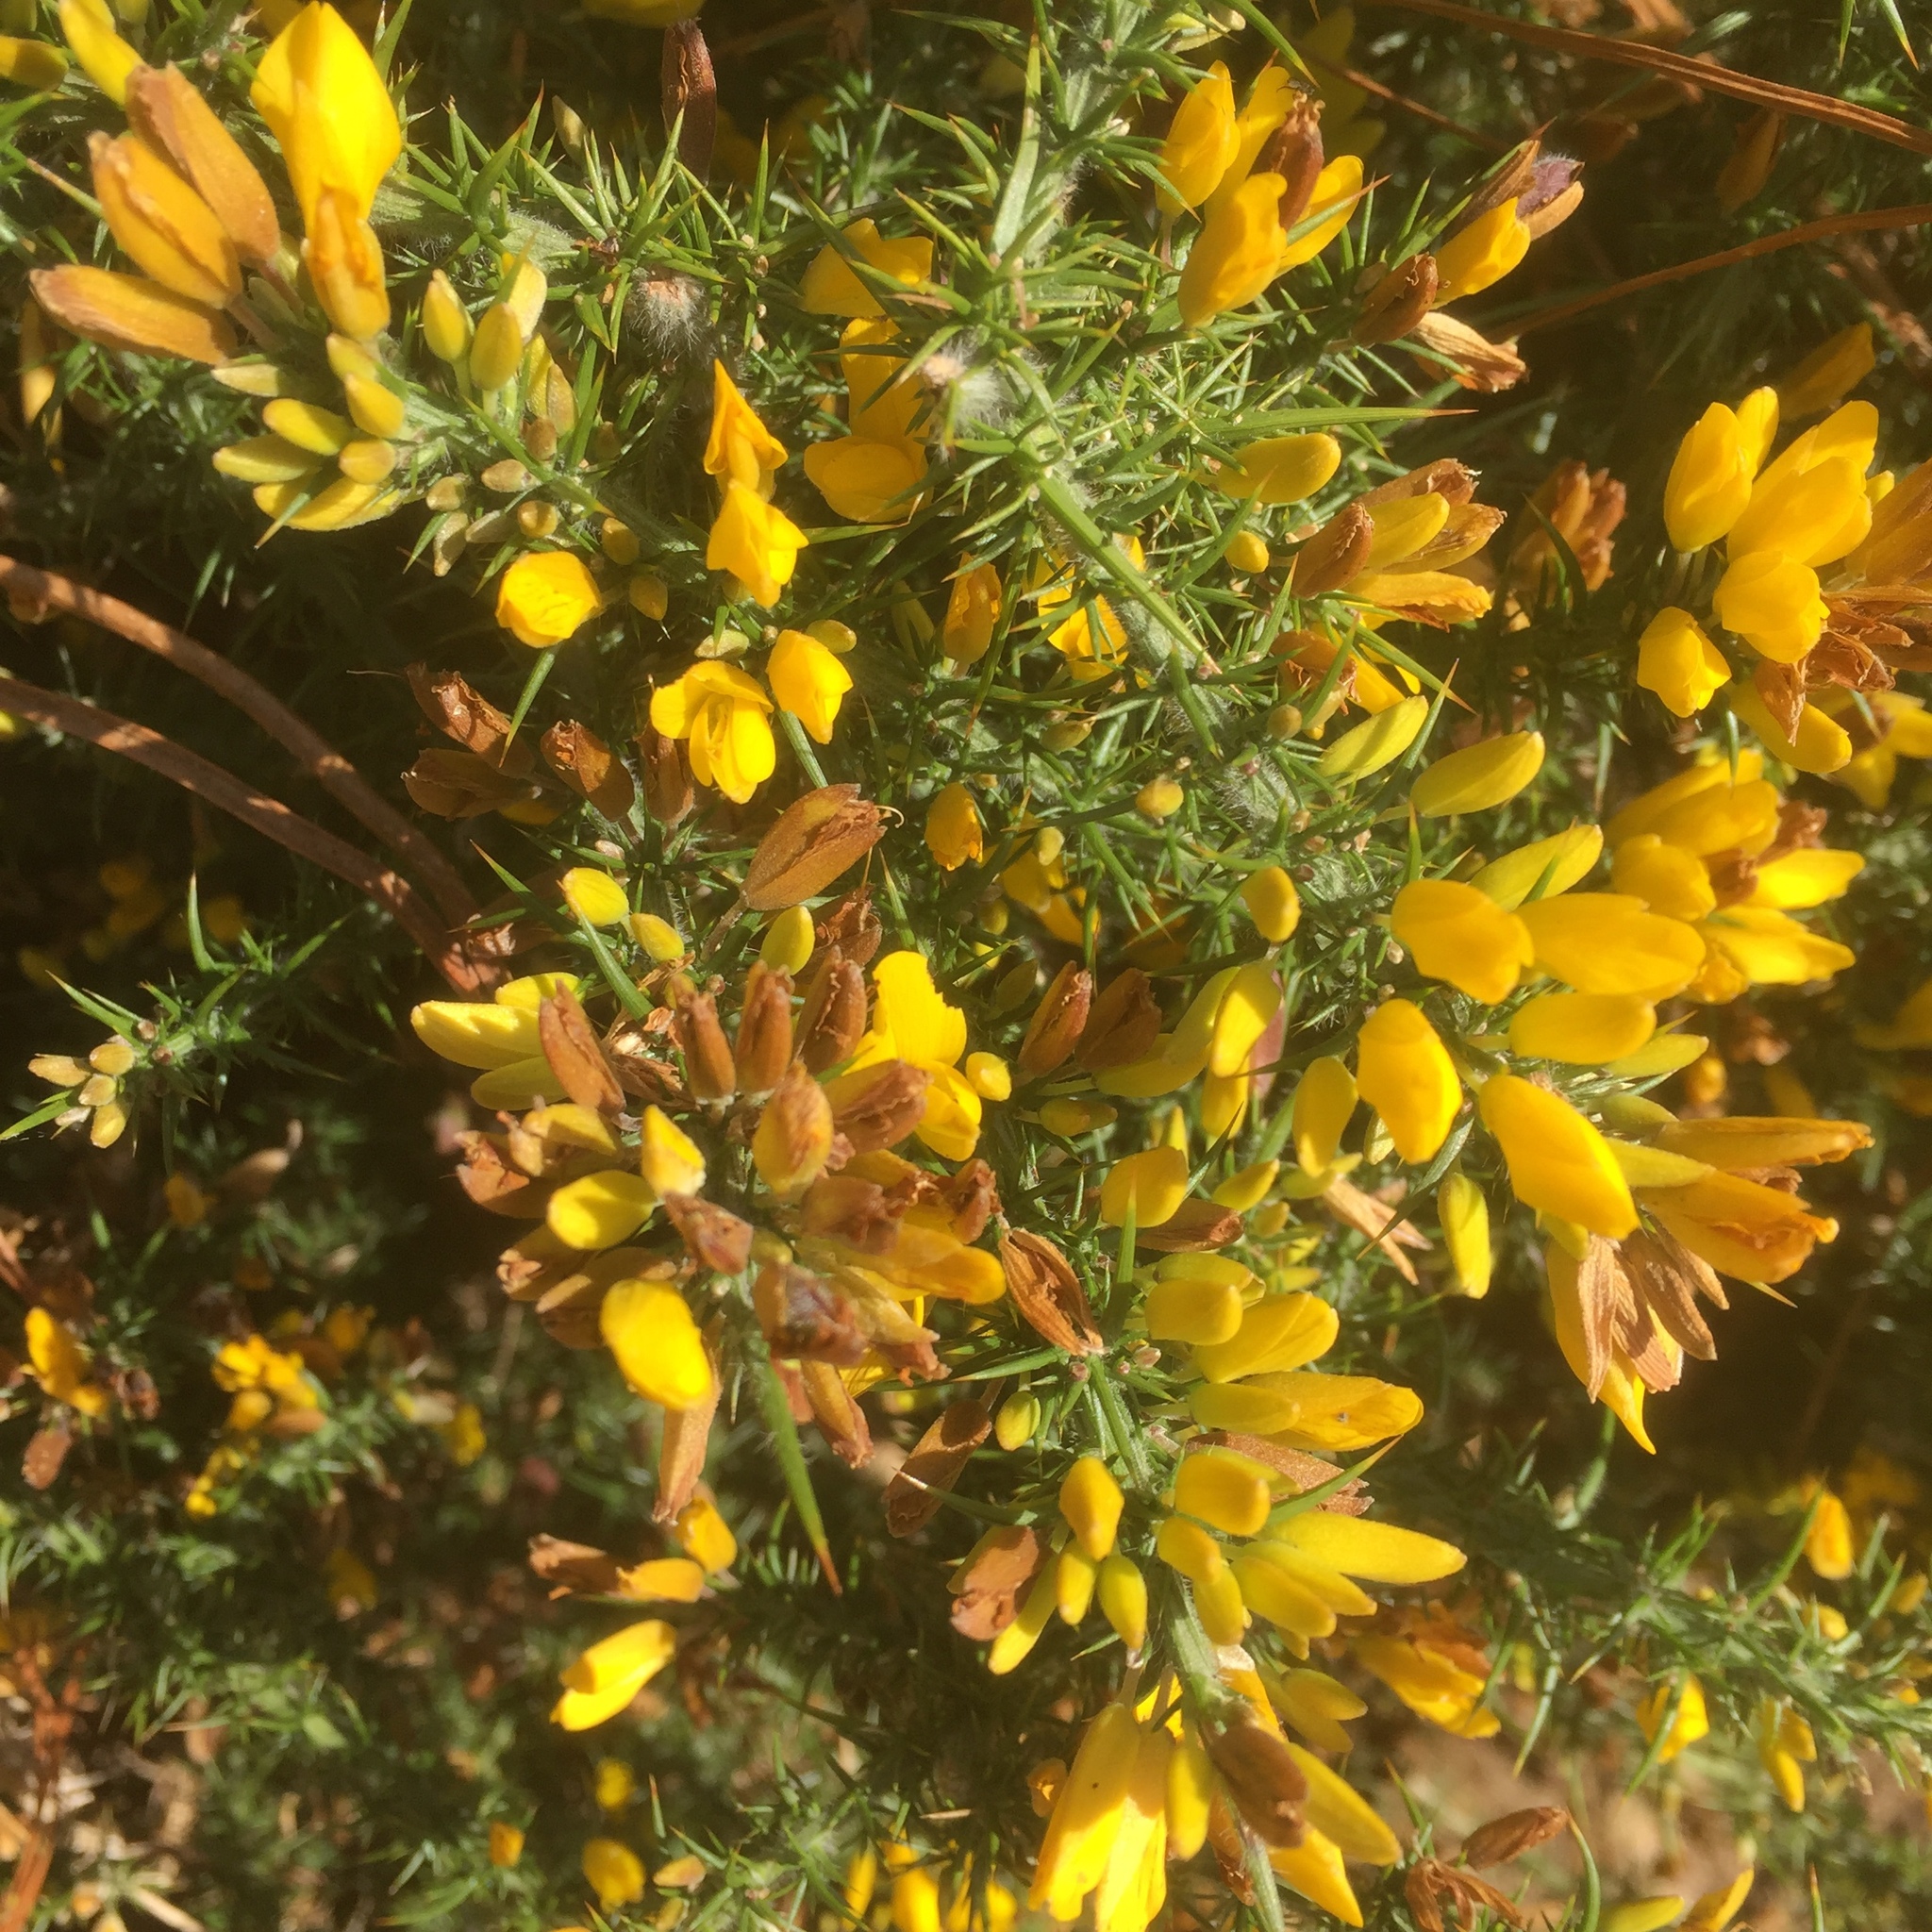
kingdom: Plantae
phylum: Tracheophyta
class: Magnoliopsida
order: Fabales
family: Fabaceae
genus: Ulex
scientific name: Ulex europaeus
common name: Common gorse
